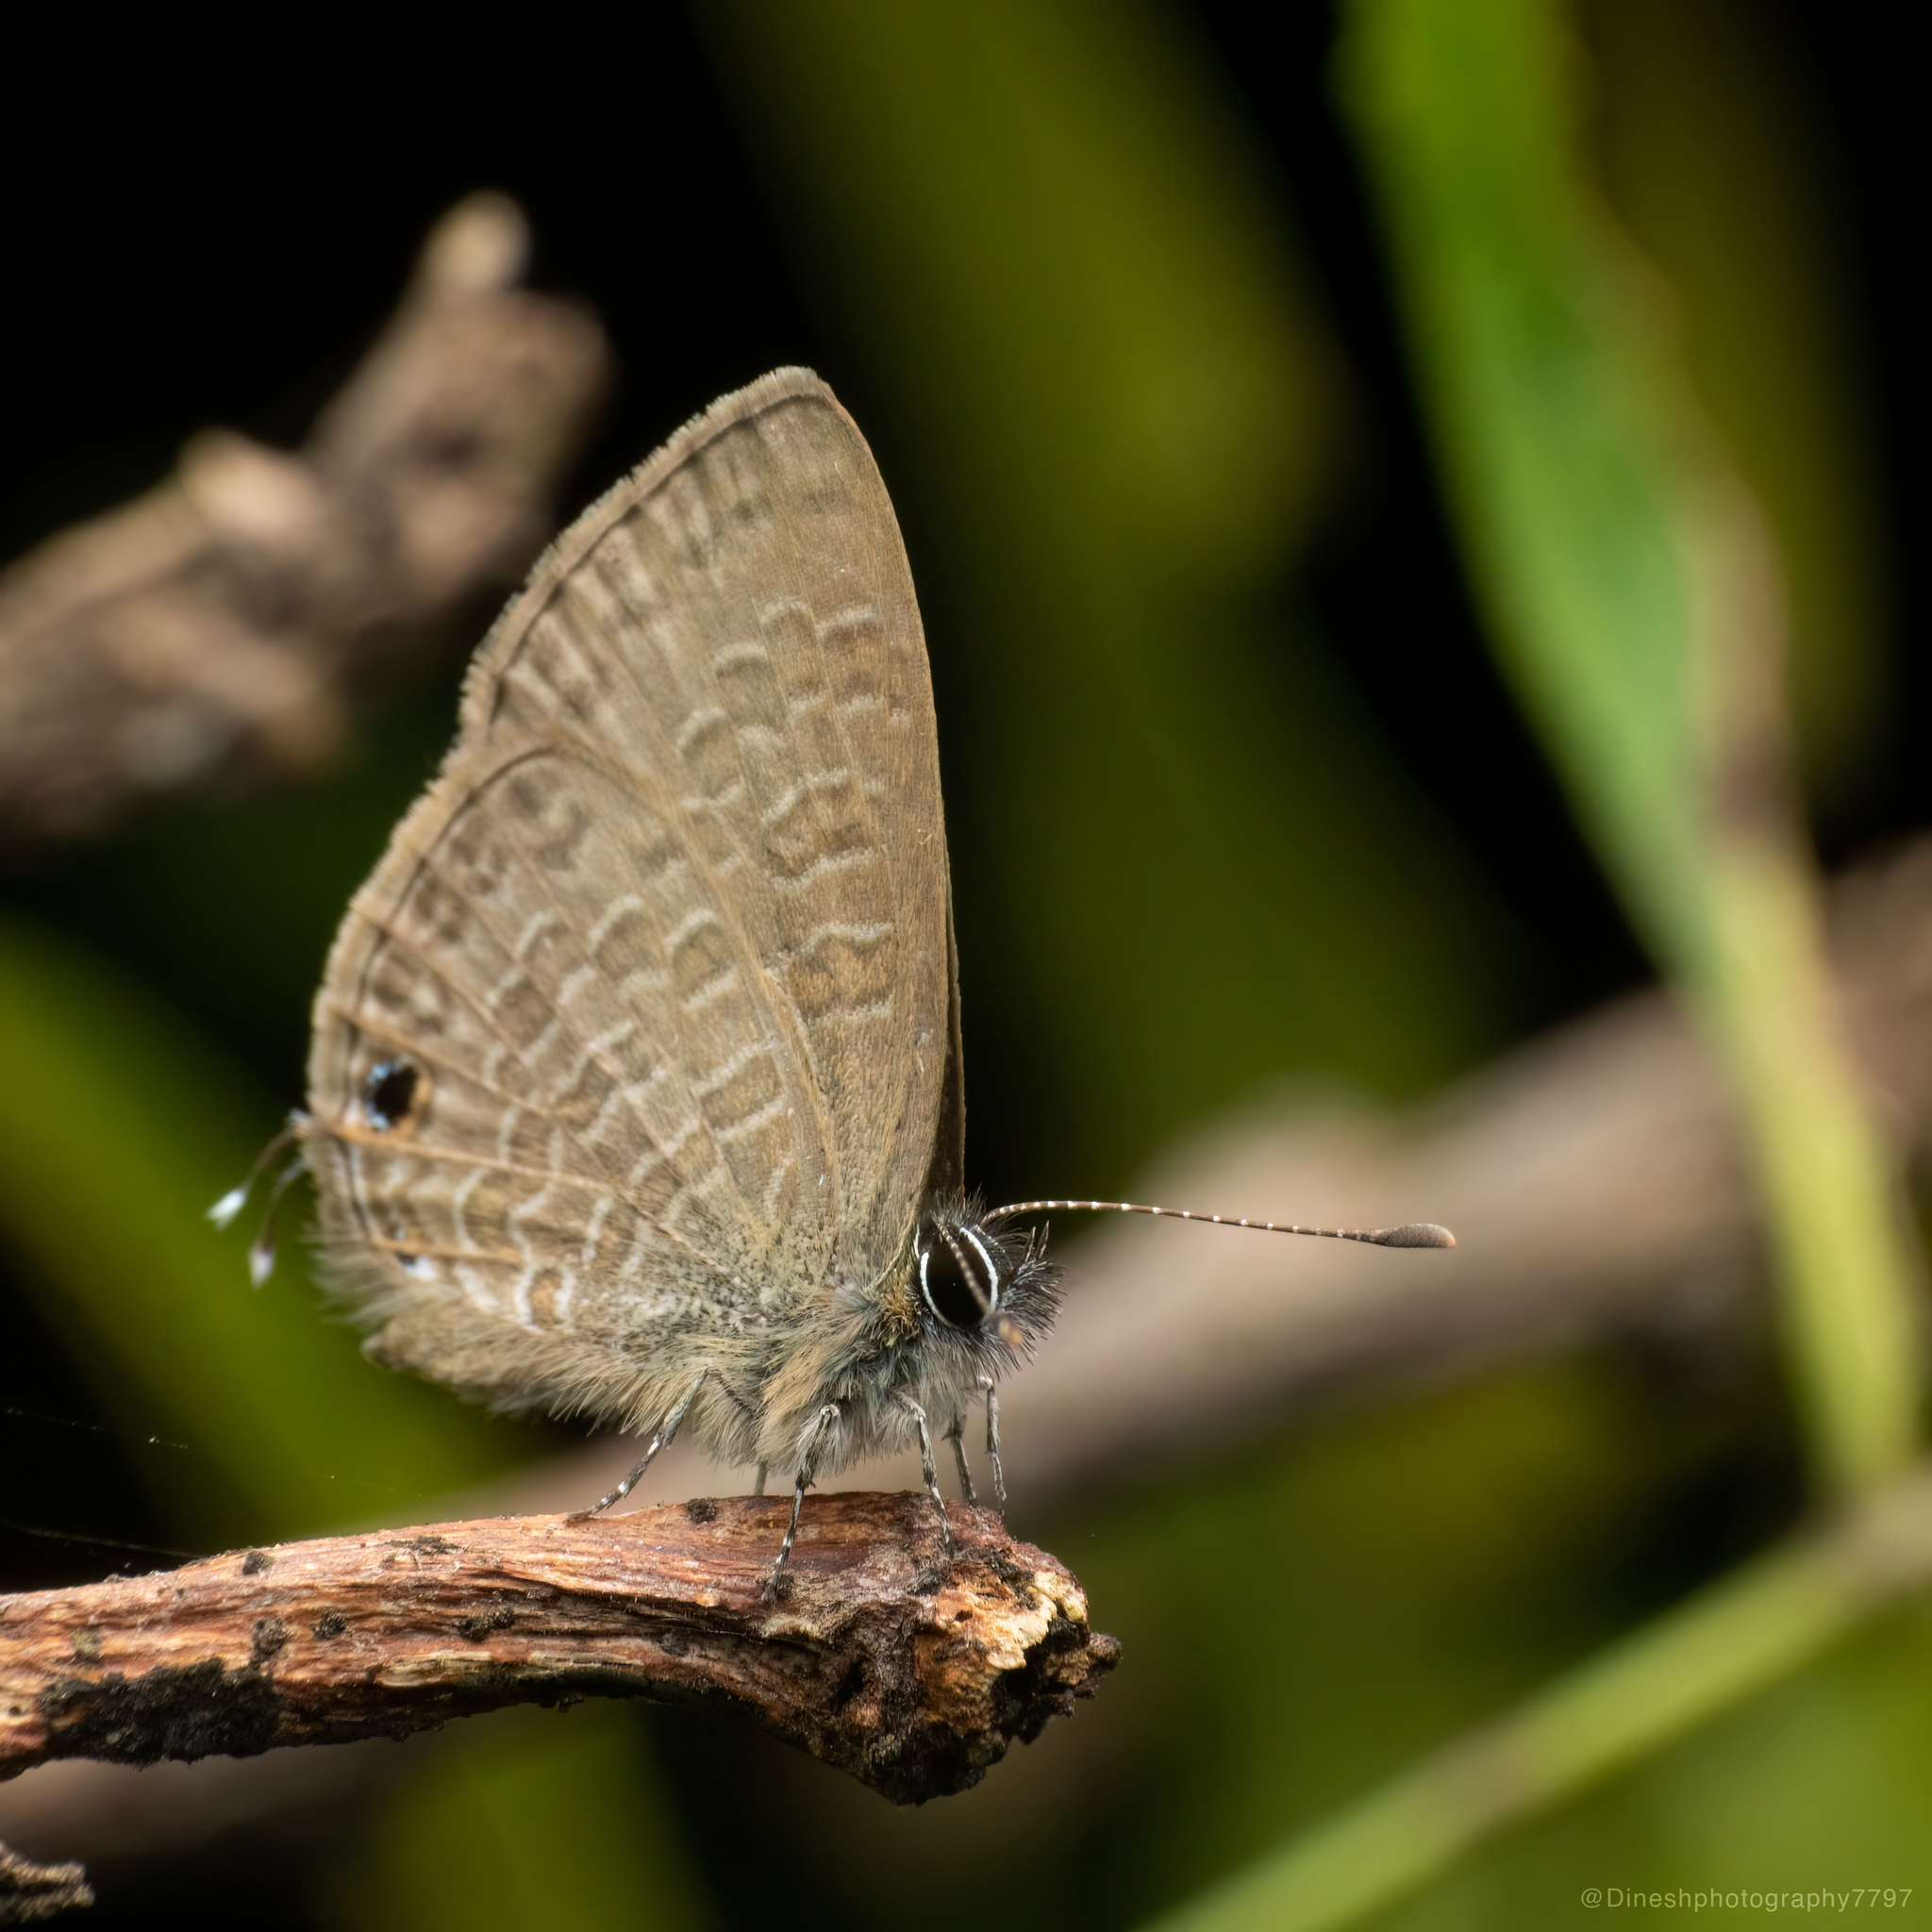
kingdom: Animalia
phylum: Arthropoda
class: Insecta
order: Lepidoptera
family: Lycaenidae
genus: Prosotas
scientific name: Prosotas nora
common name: Common line blue
